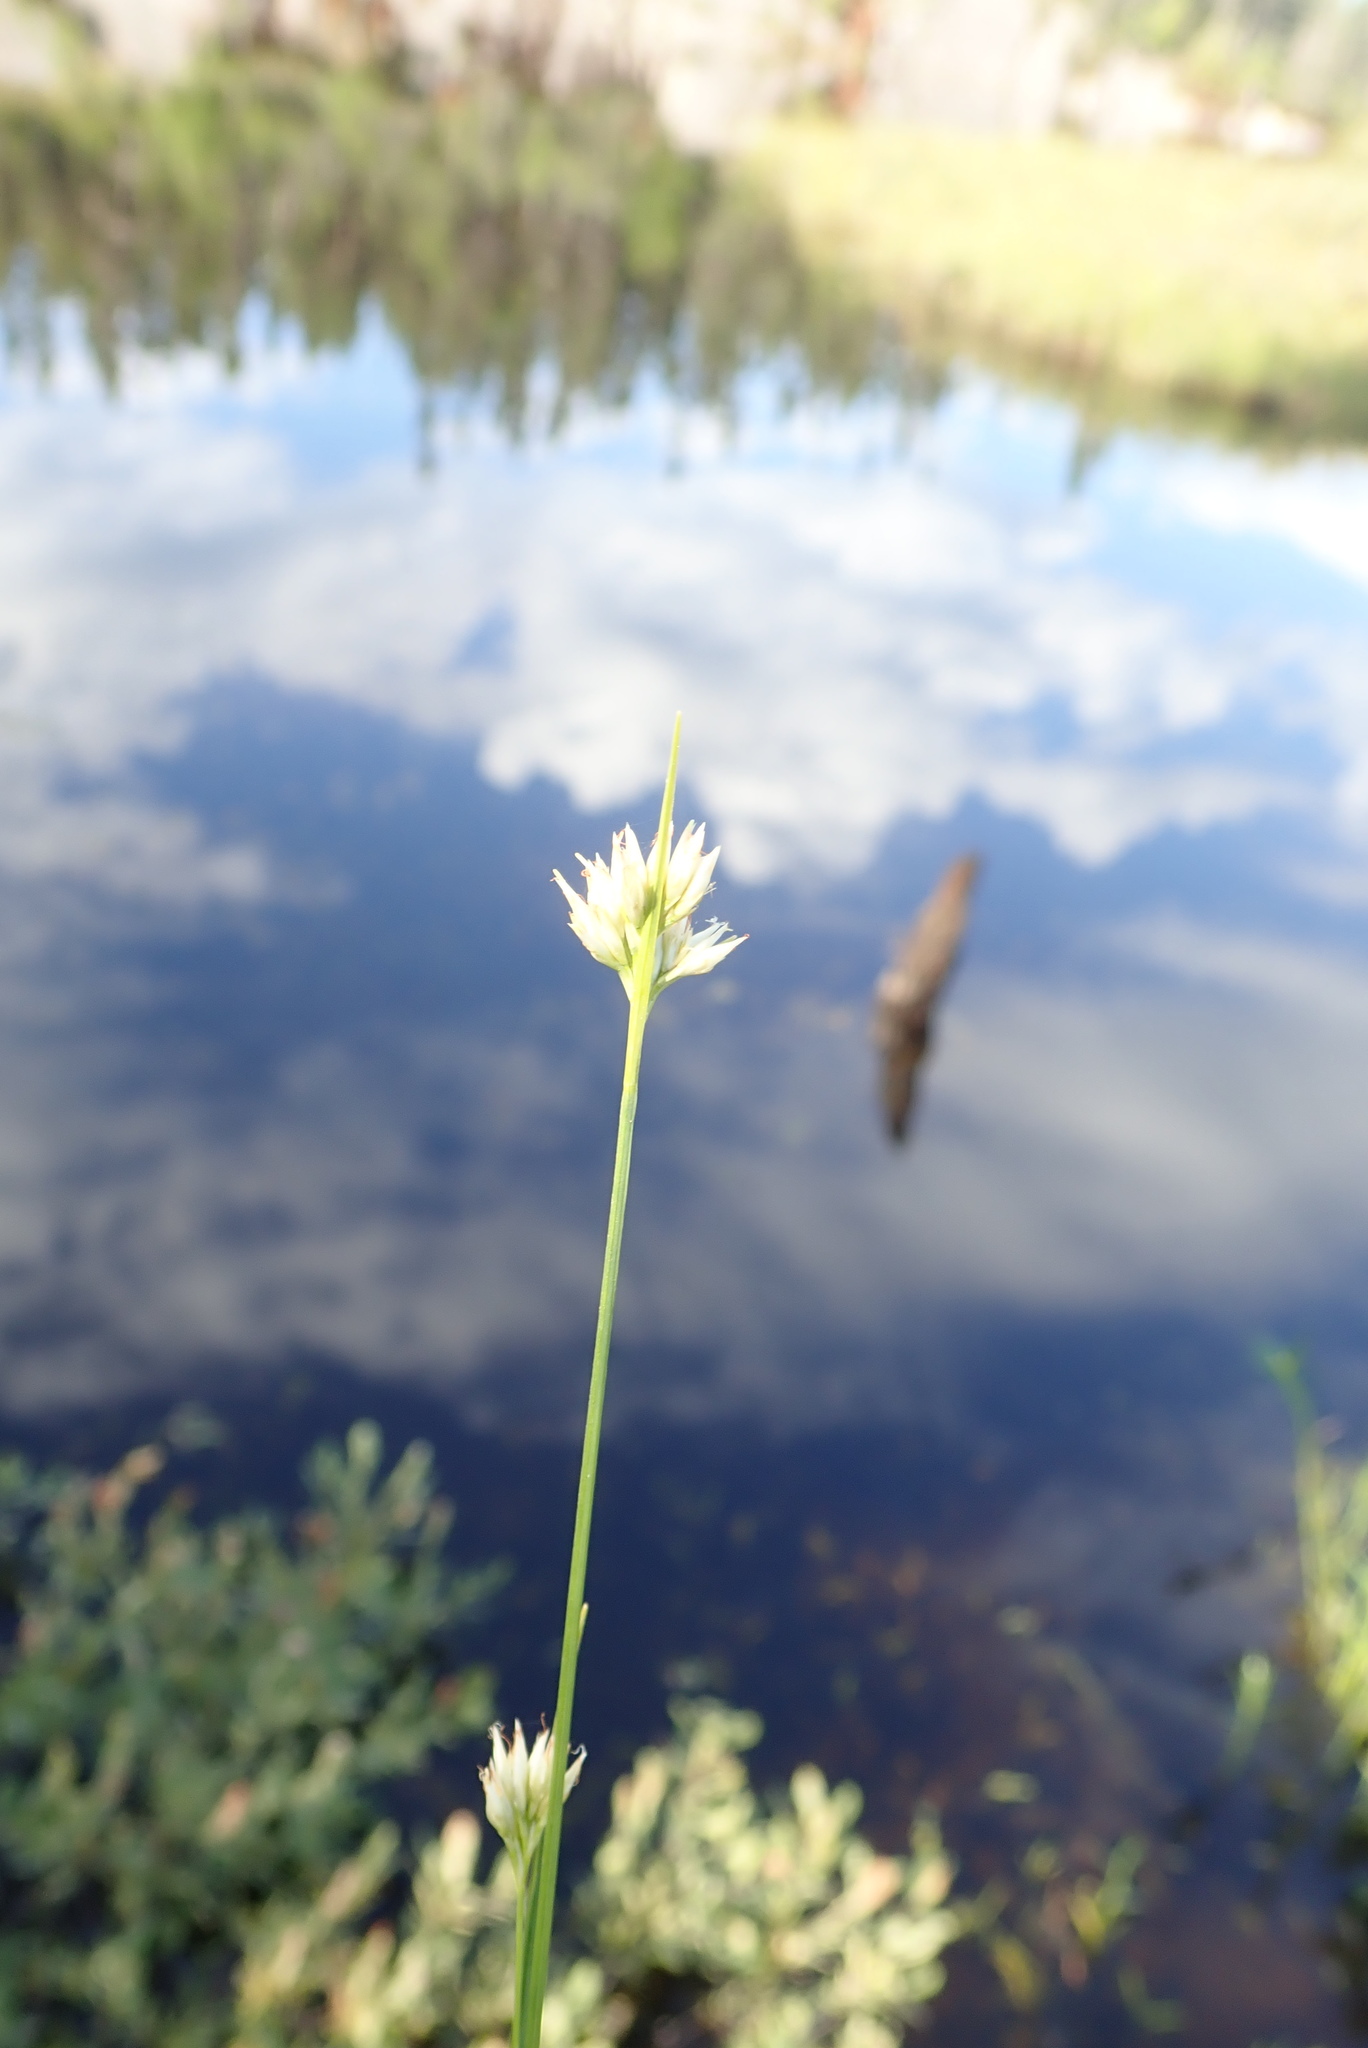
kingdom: Plantae
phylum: Tracheophyta
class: Liliopsida
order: Poales
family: Cyperaceae
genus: Rhynchospora
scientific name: Rhynchospora alba
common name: White beak-sedge
